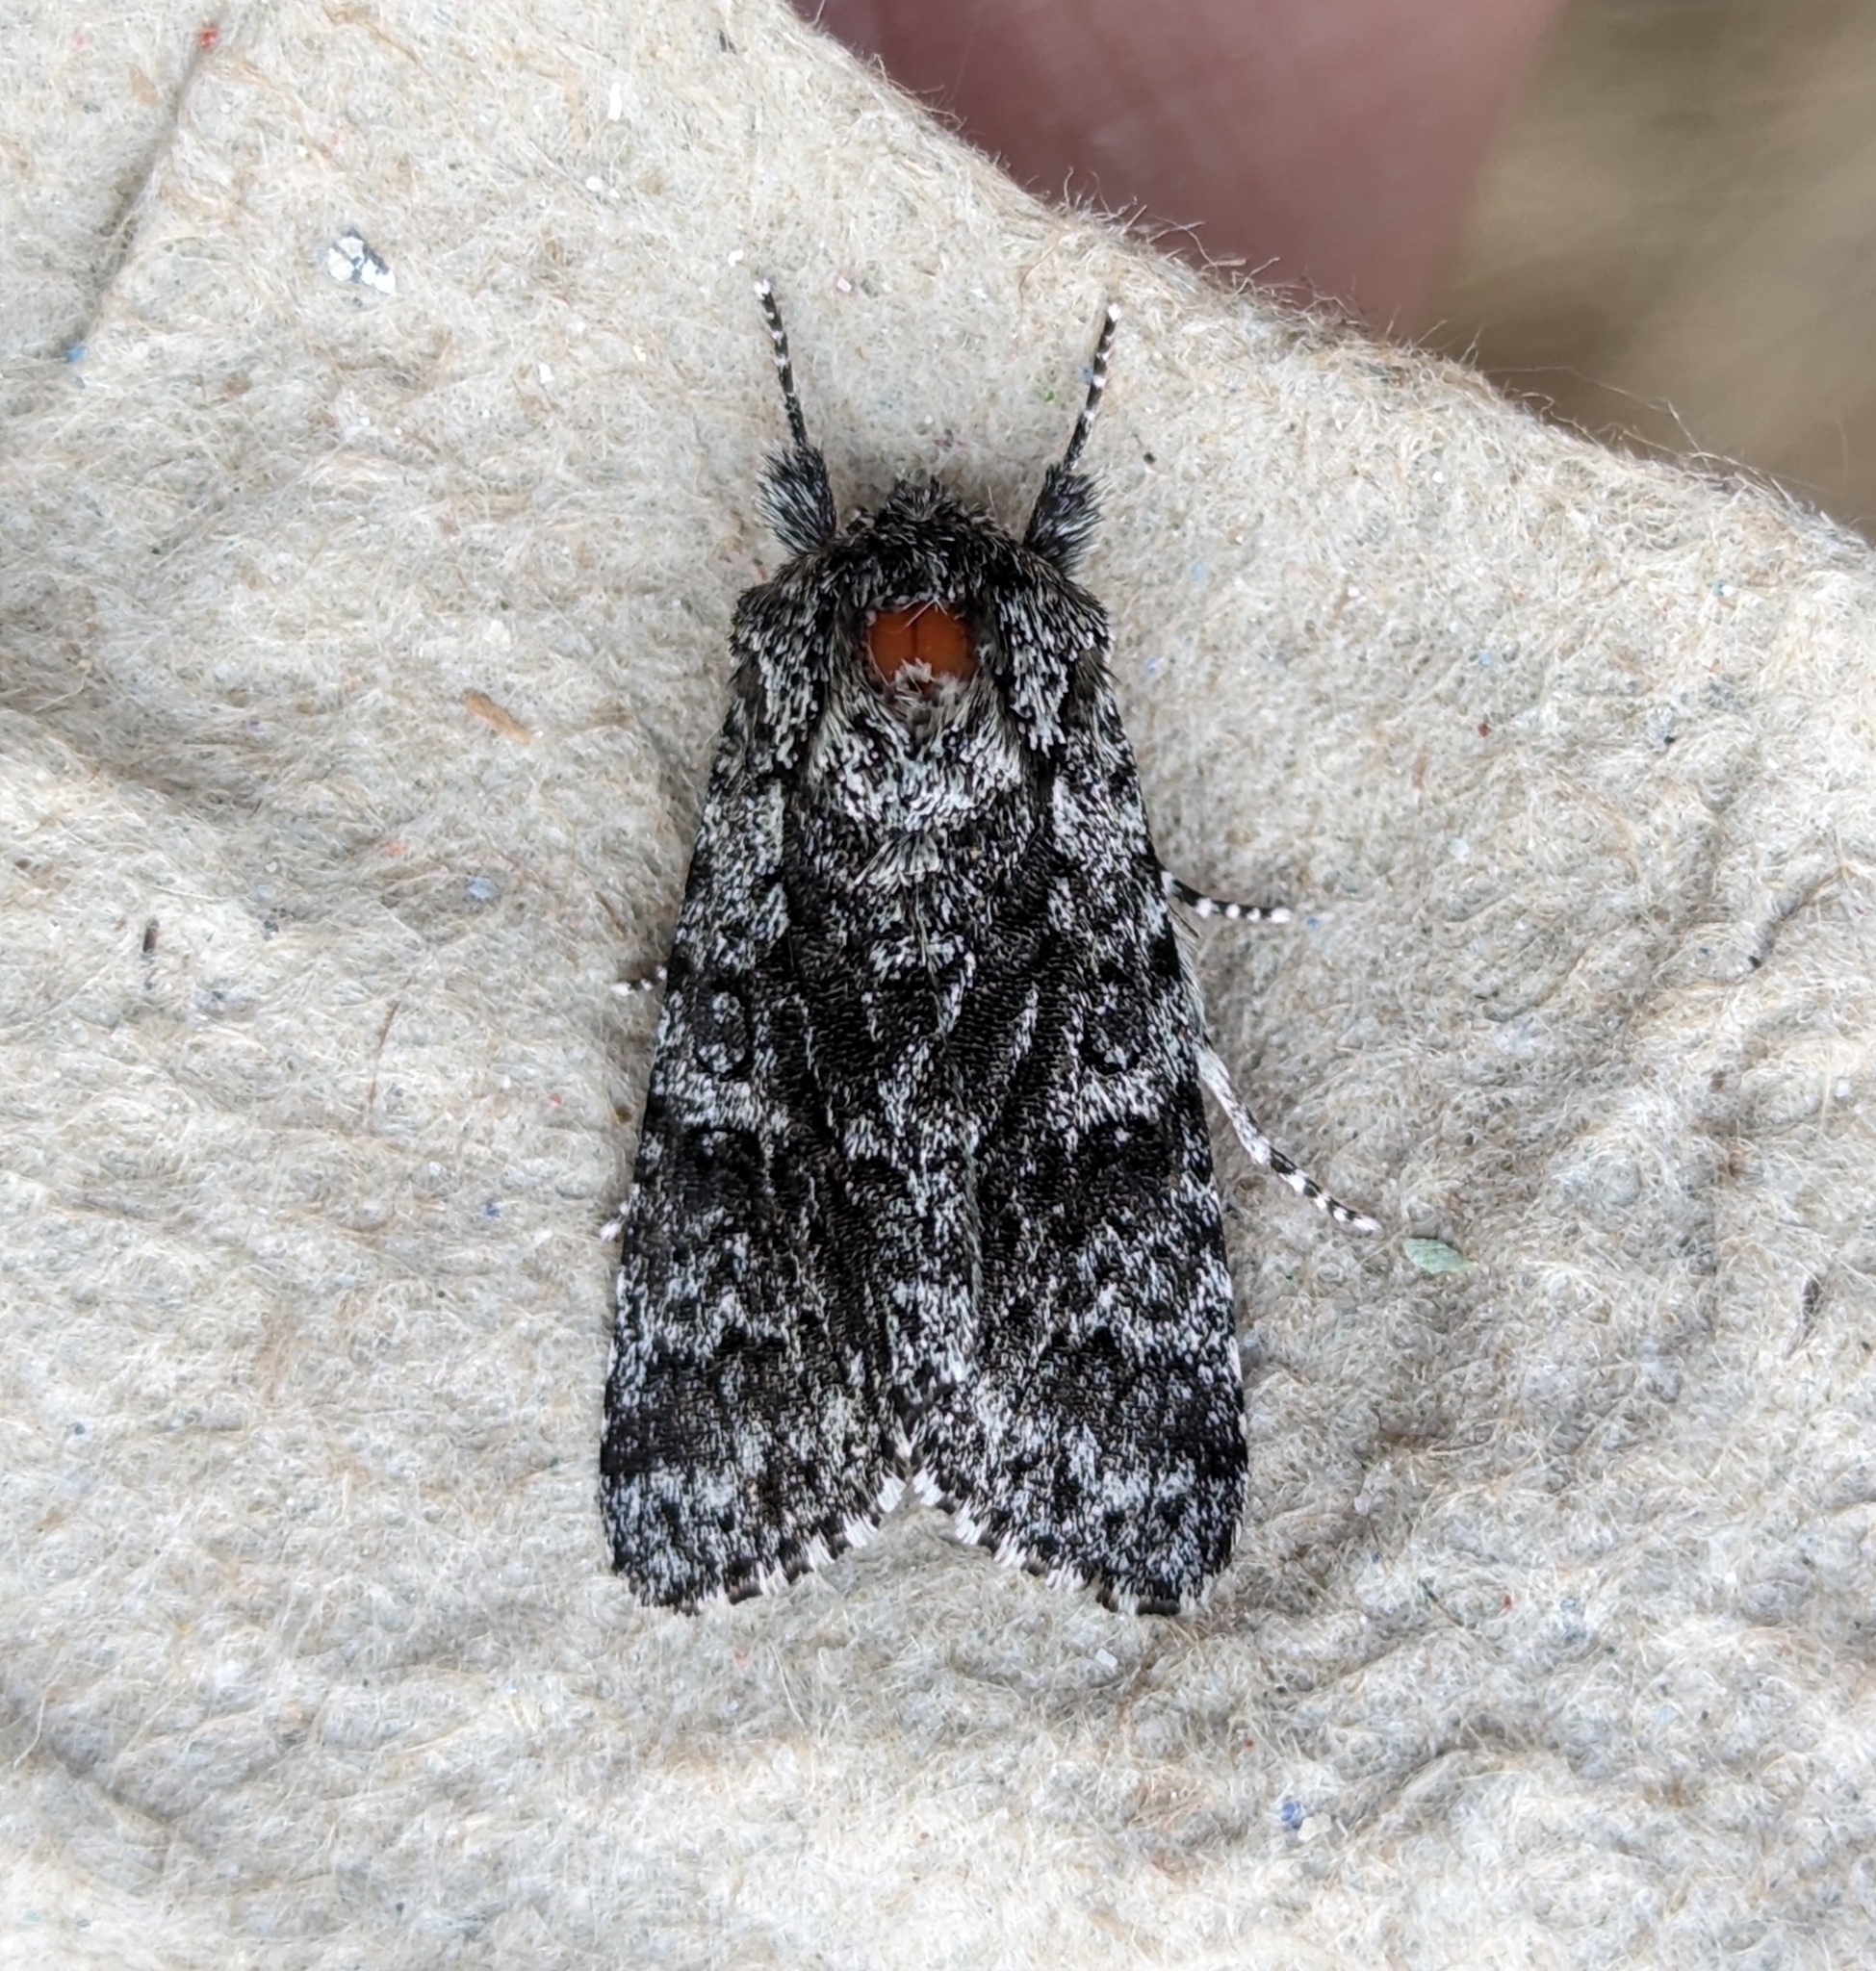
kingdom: Animalia
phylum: Arthropoda
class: Insecta
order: Lepidoptera
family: Noctuidae
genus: Acronicta
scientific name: Acronicta impressa
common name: Impressed dagger
